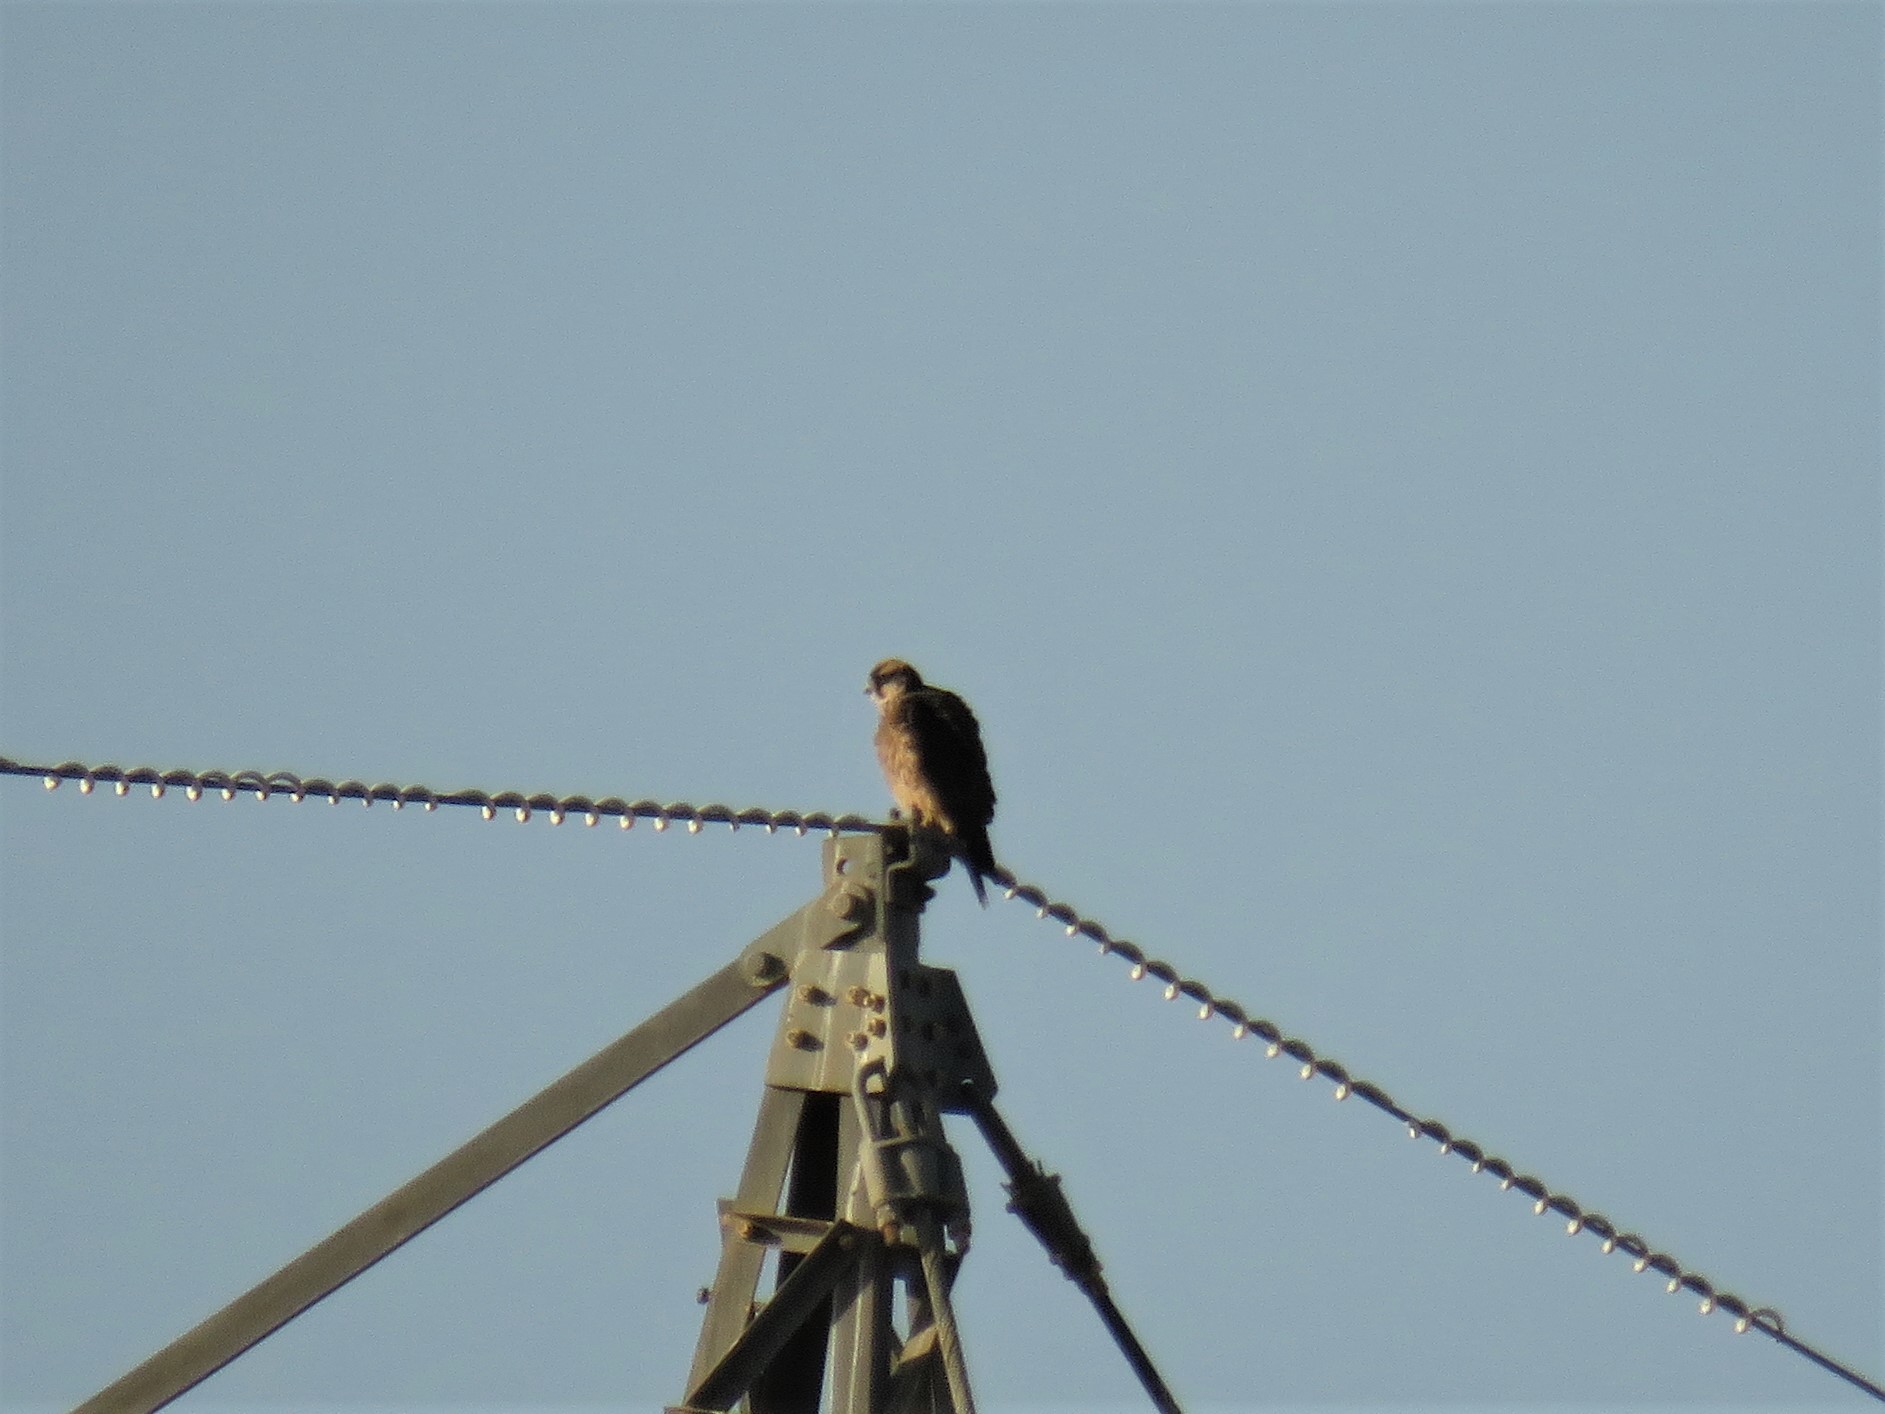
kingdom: Animalia
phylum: Chordata
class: Aves
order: Falconiformes
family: Falconidae
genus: Falco
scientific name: Falco biarmicus
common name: Lanner falcon
